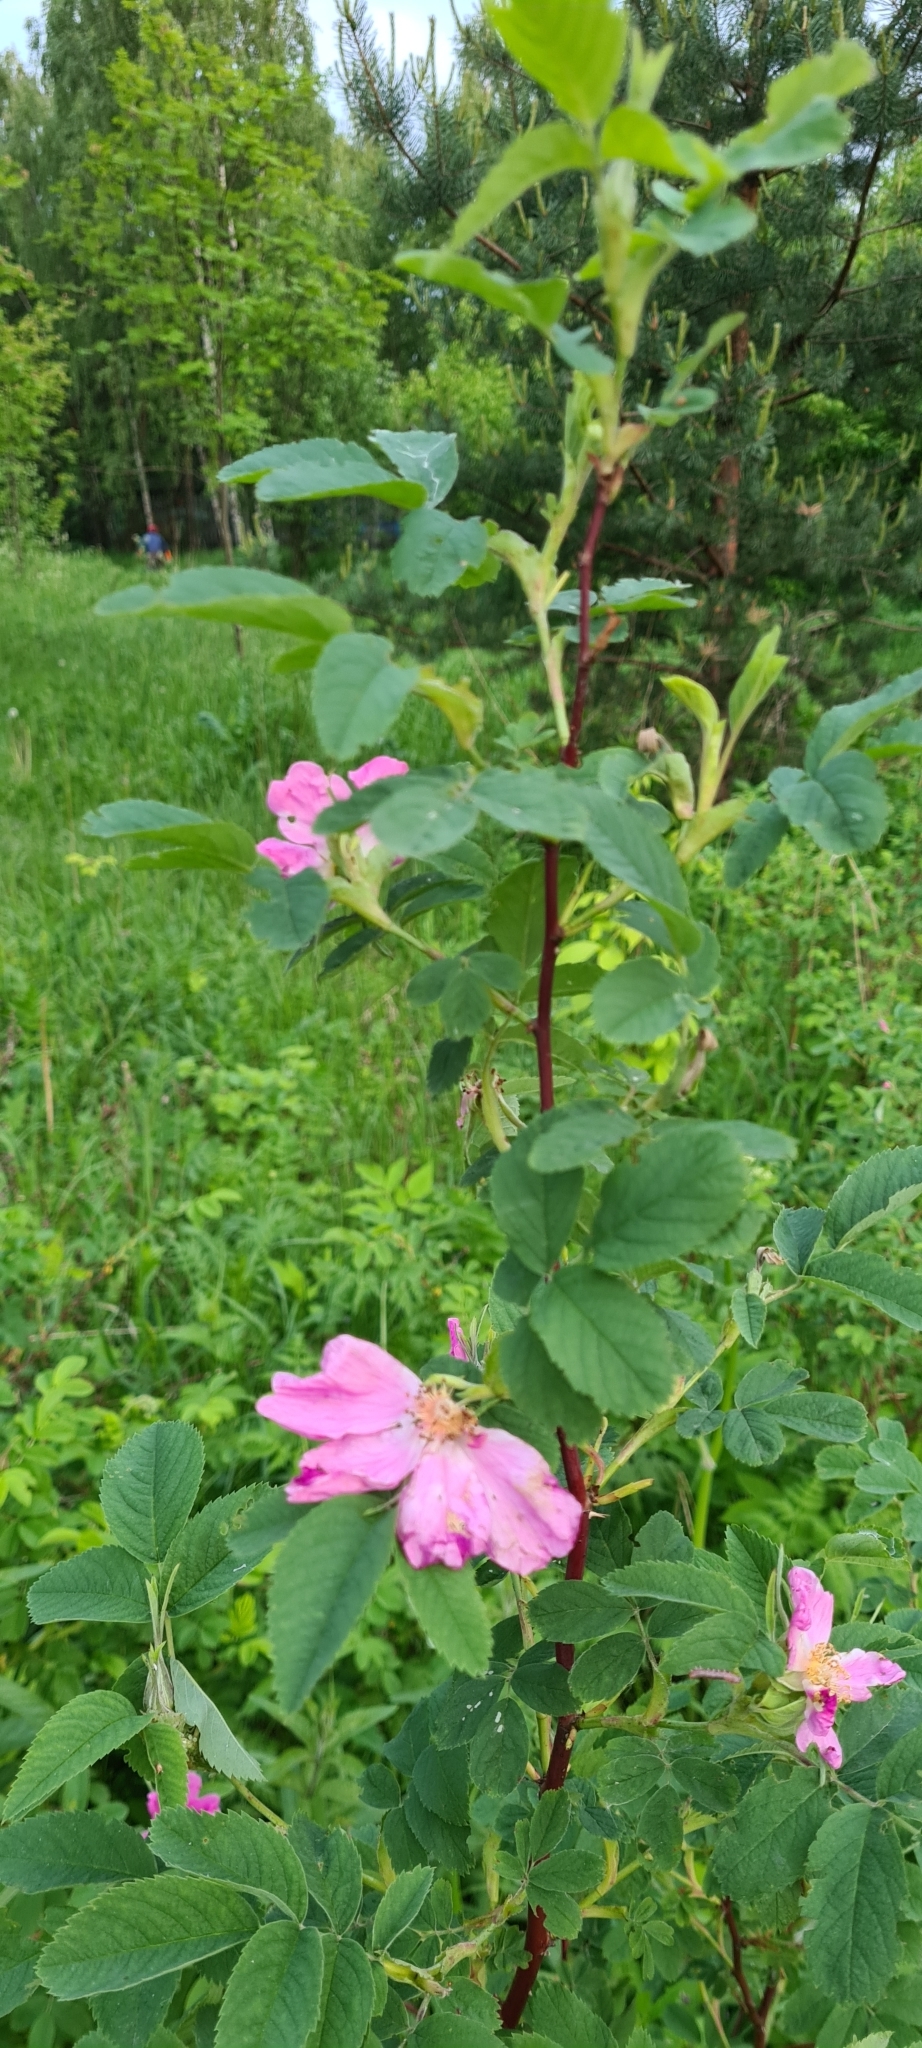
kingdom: Plantae
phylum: Tracheophyta
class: Magnoliopsida
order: Rosales
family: Rosaceae
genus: Rosa
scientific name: Rosa majalis
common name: Cinnamon rose
